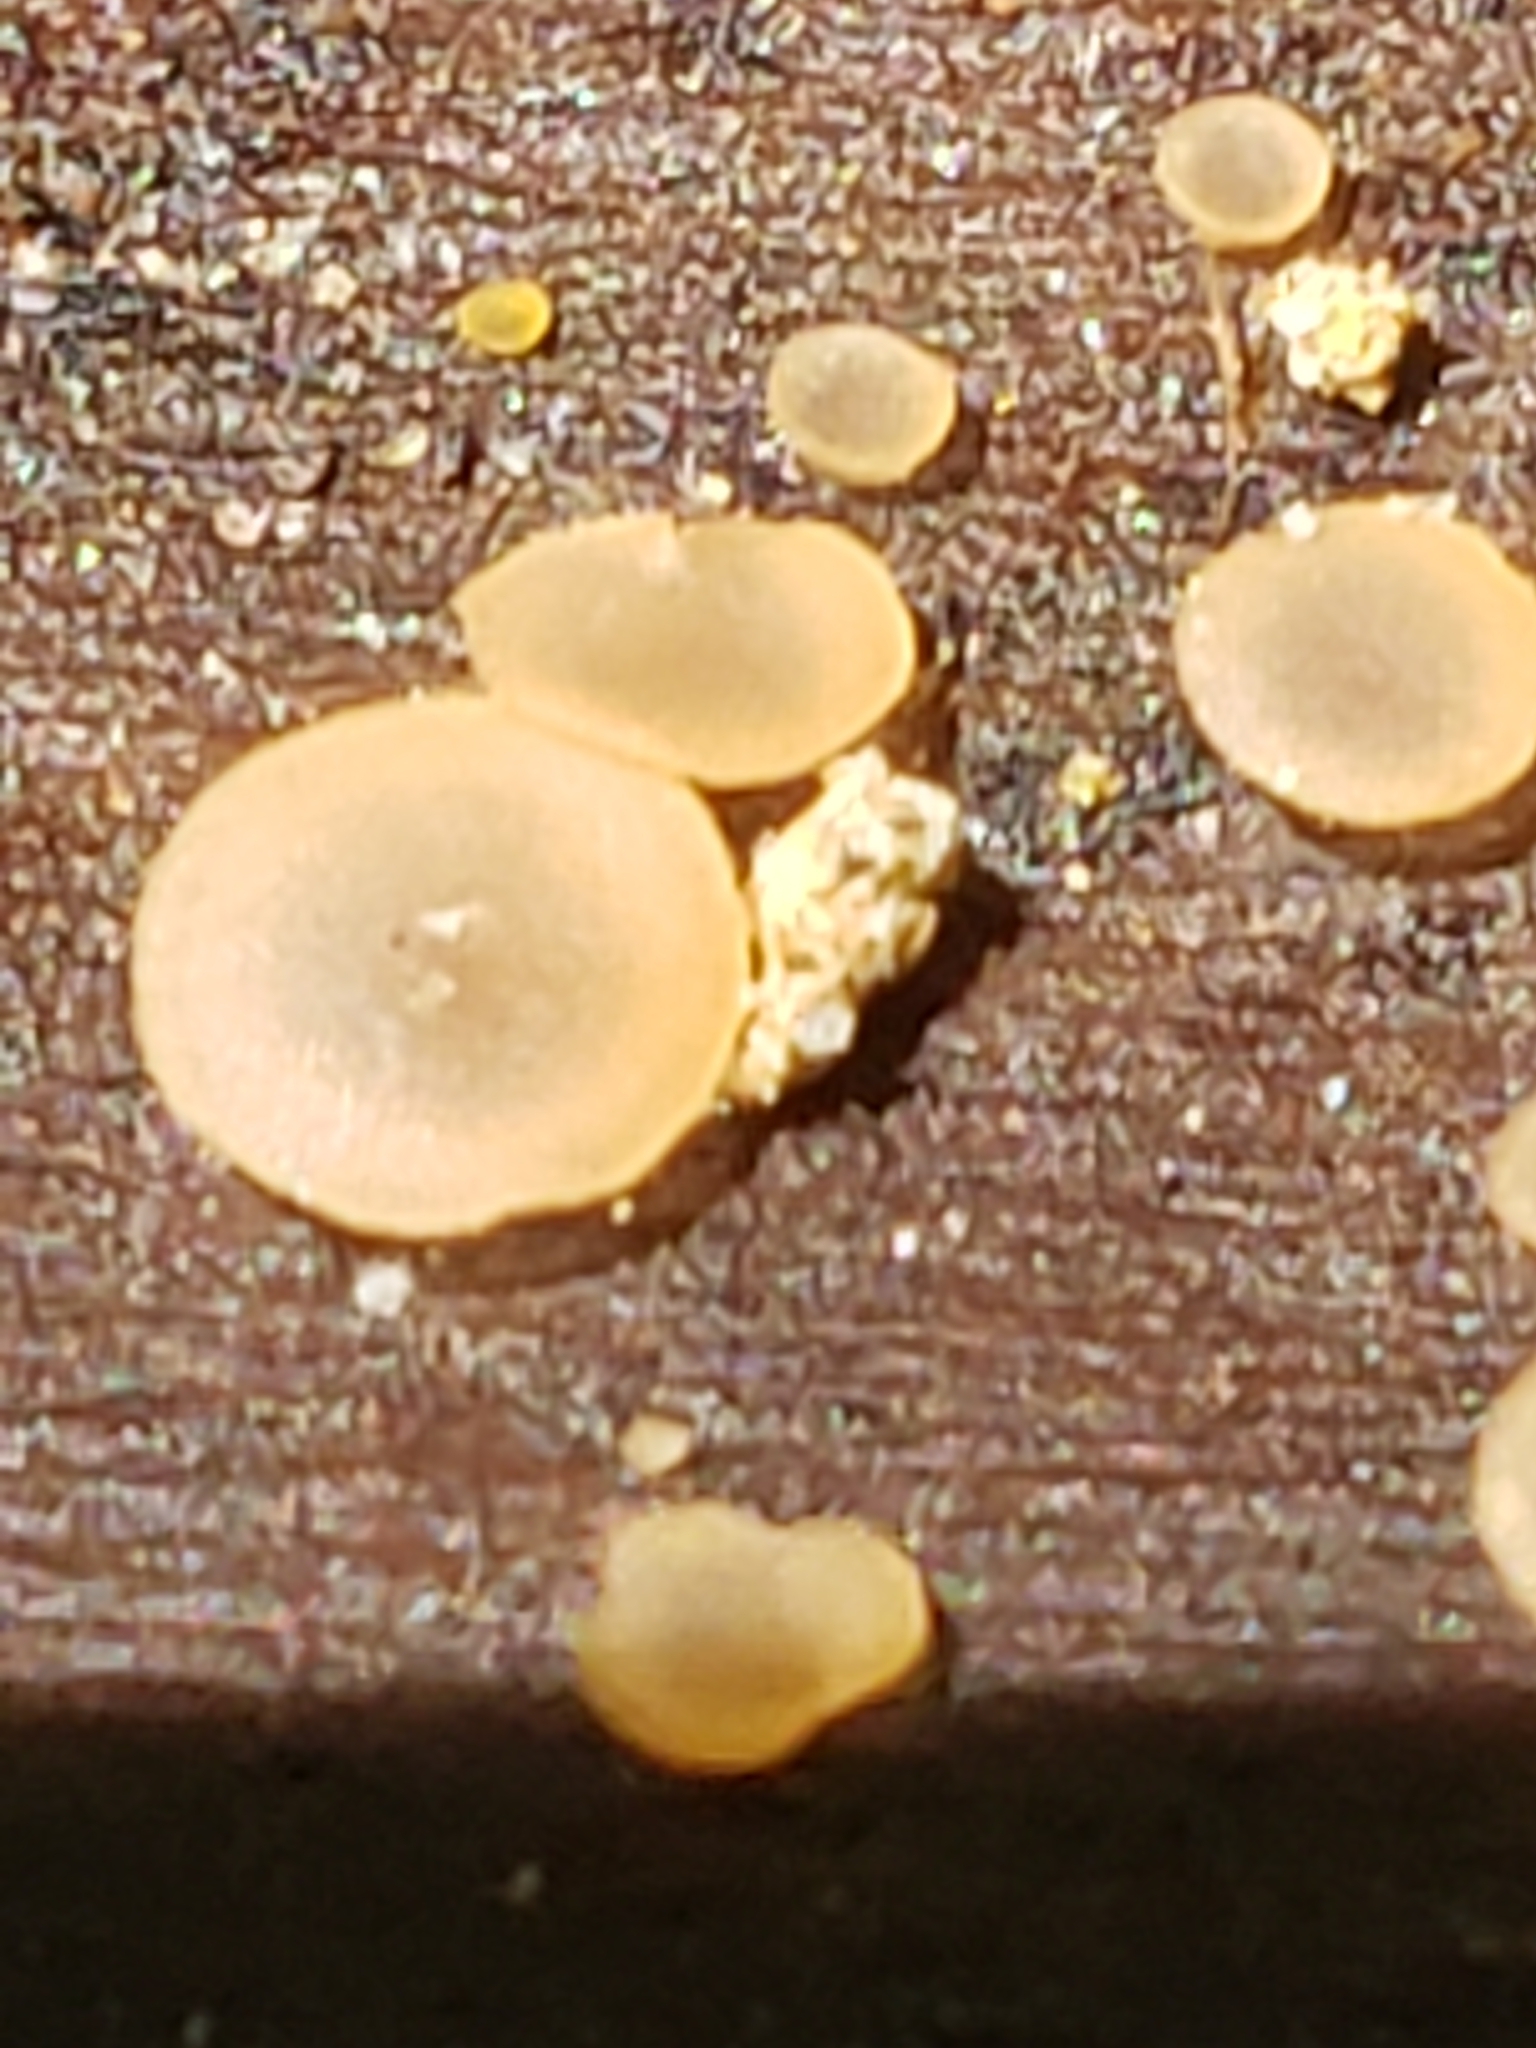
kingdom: Fungi
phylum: Ascomycota
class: Orbiliomycetes
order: Orbiliales
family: Orbiliaceae
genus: Orbilia
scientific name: Orbilia
